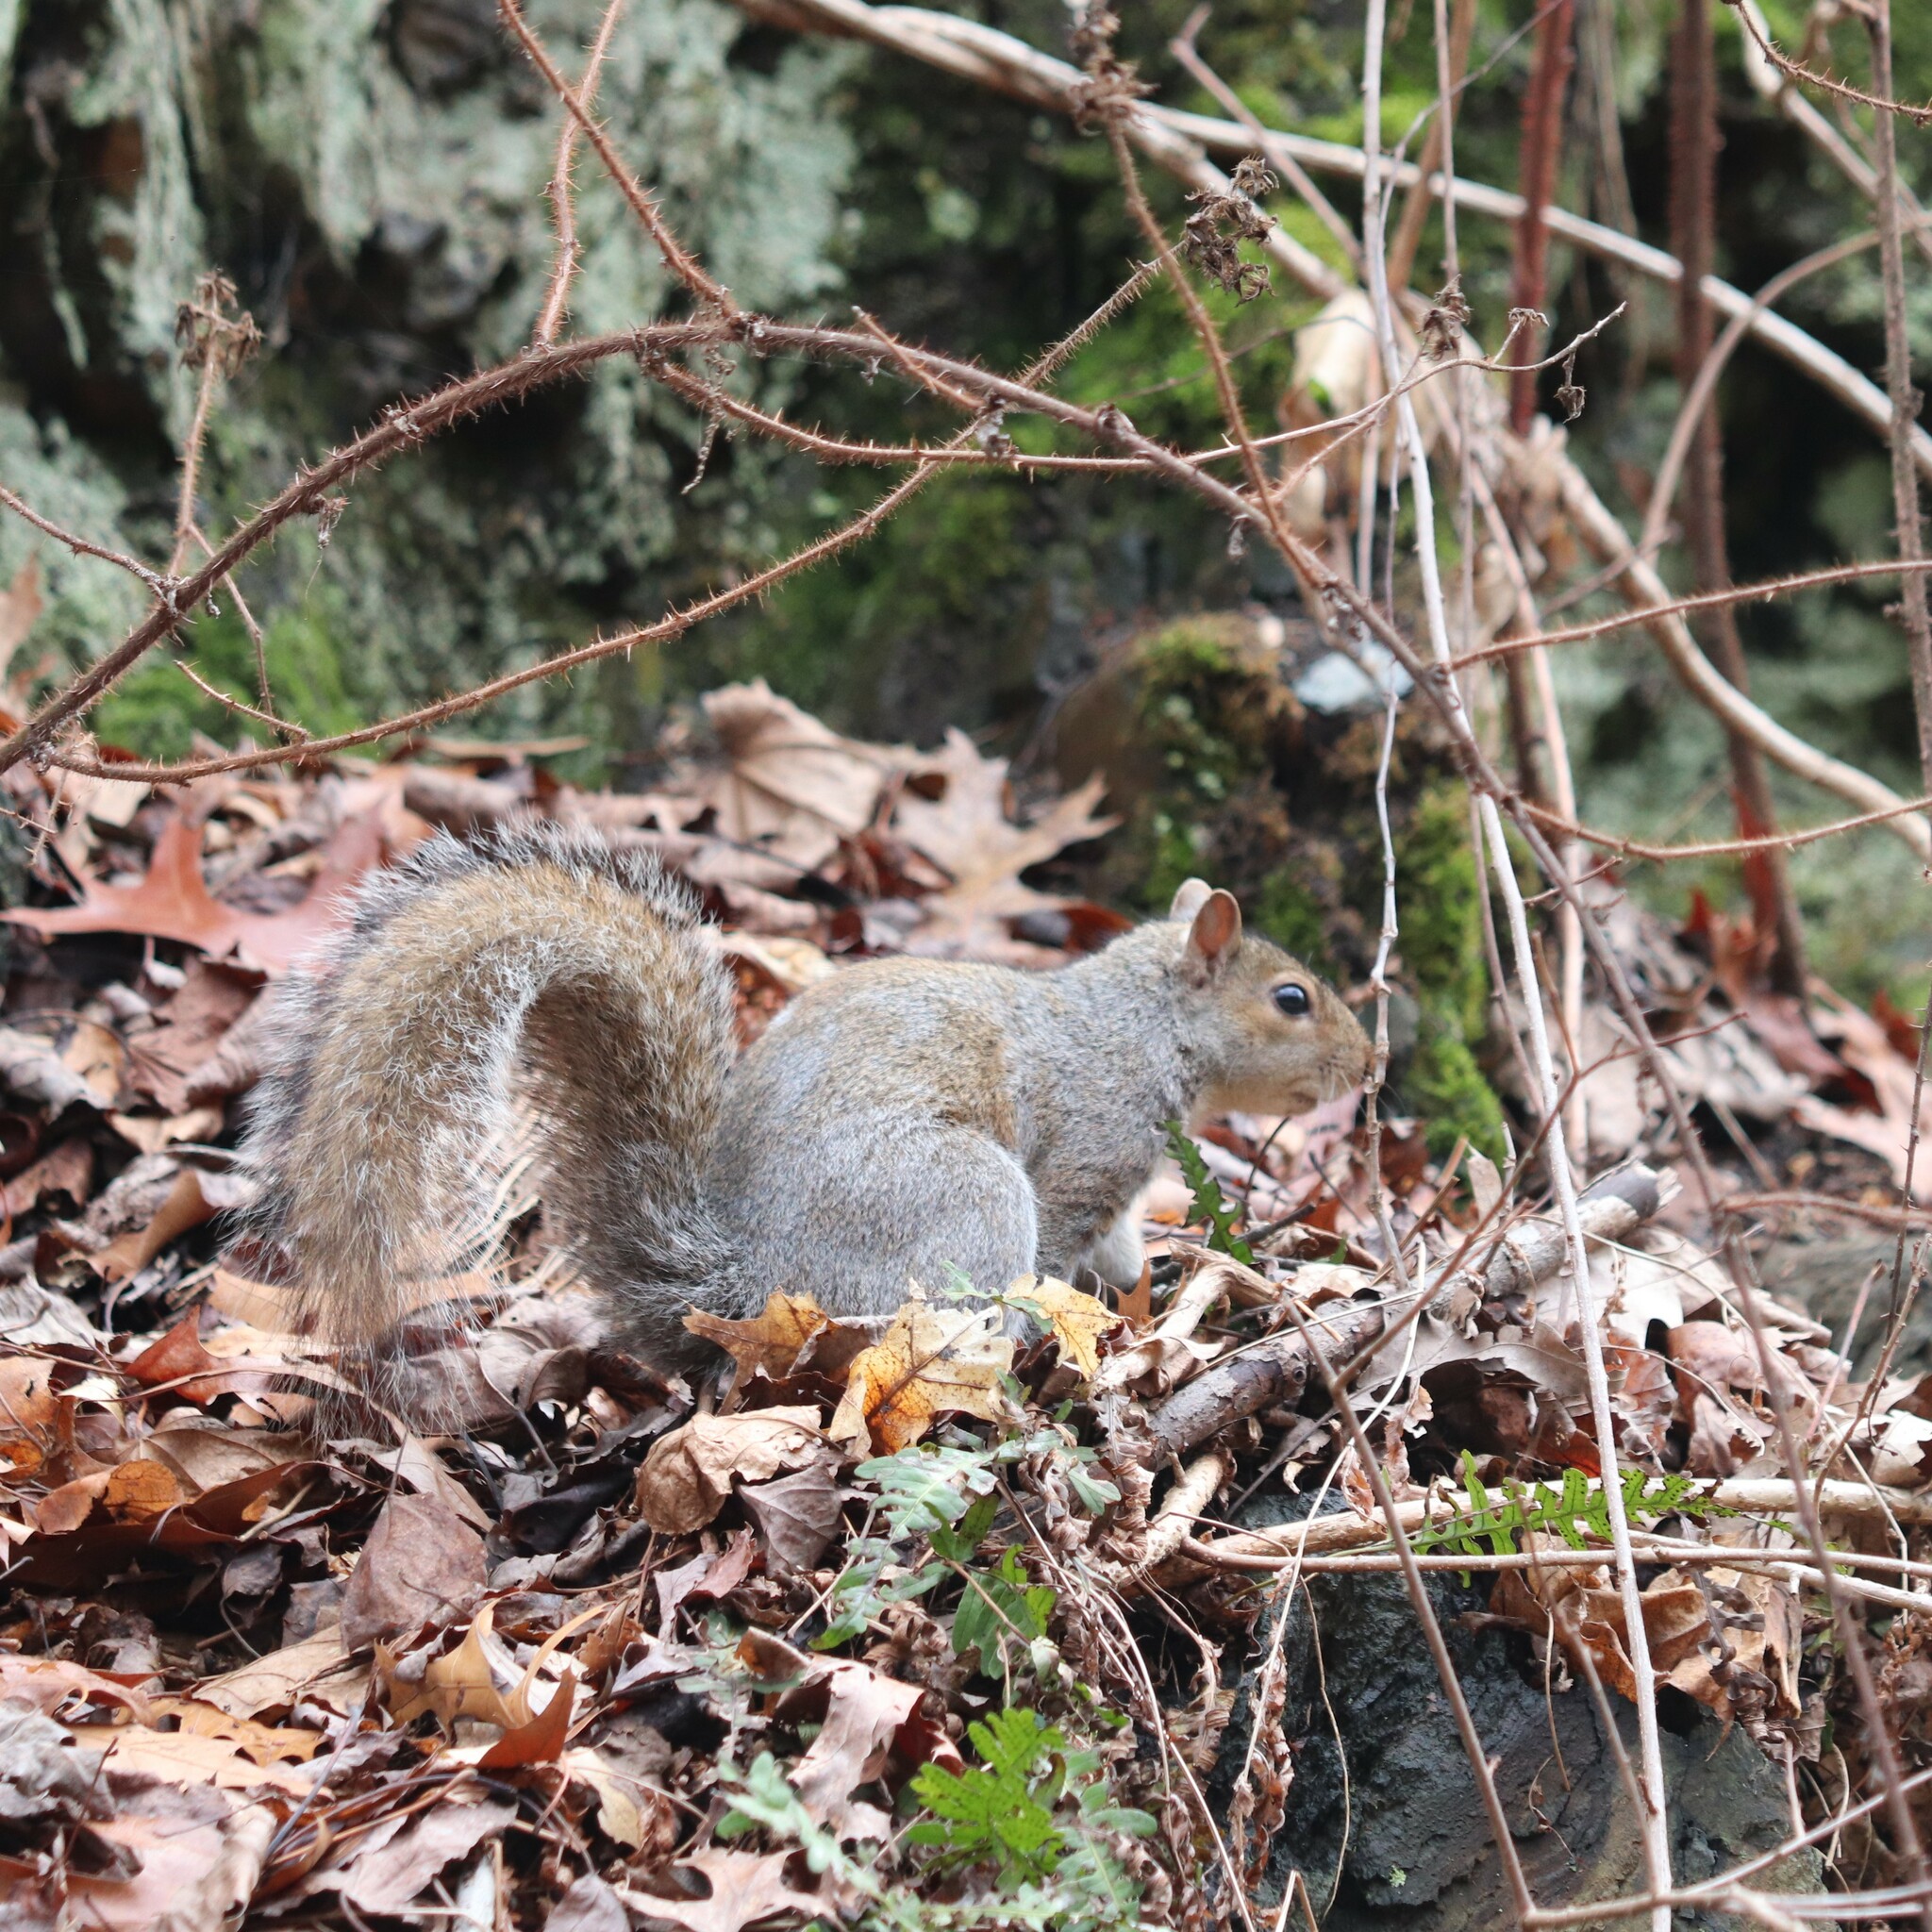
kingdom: Animalia
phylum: Chordata
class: Mammalia
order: Rodentia
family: Sciuridae
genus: Sciurus
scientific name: Sciurus carolinensis
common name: Eastern gray squirrel
